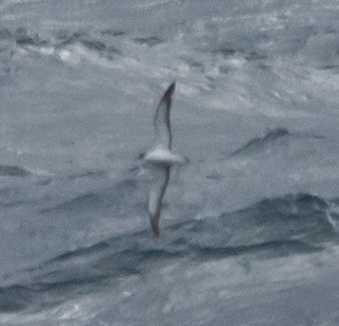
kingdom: Animalia
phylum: Chordata
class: Aves
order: Procellariiformes
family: Procellariidae
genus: Calonectris
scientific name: Calonectris diomedea
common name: Cory's shearwater
